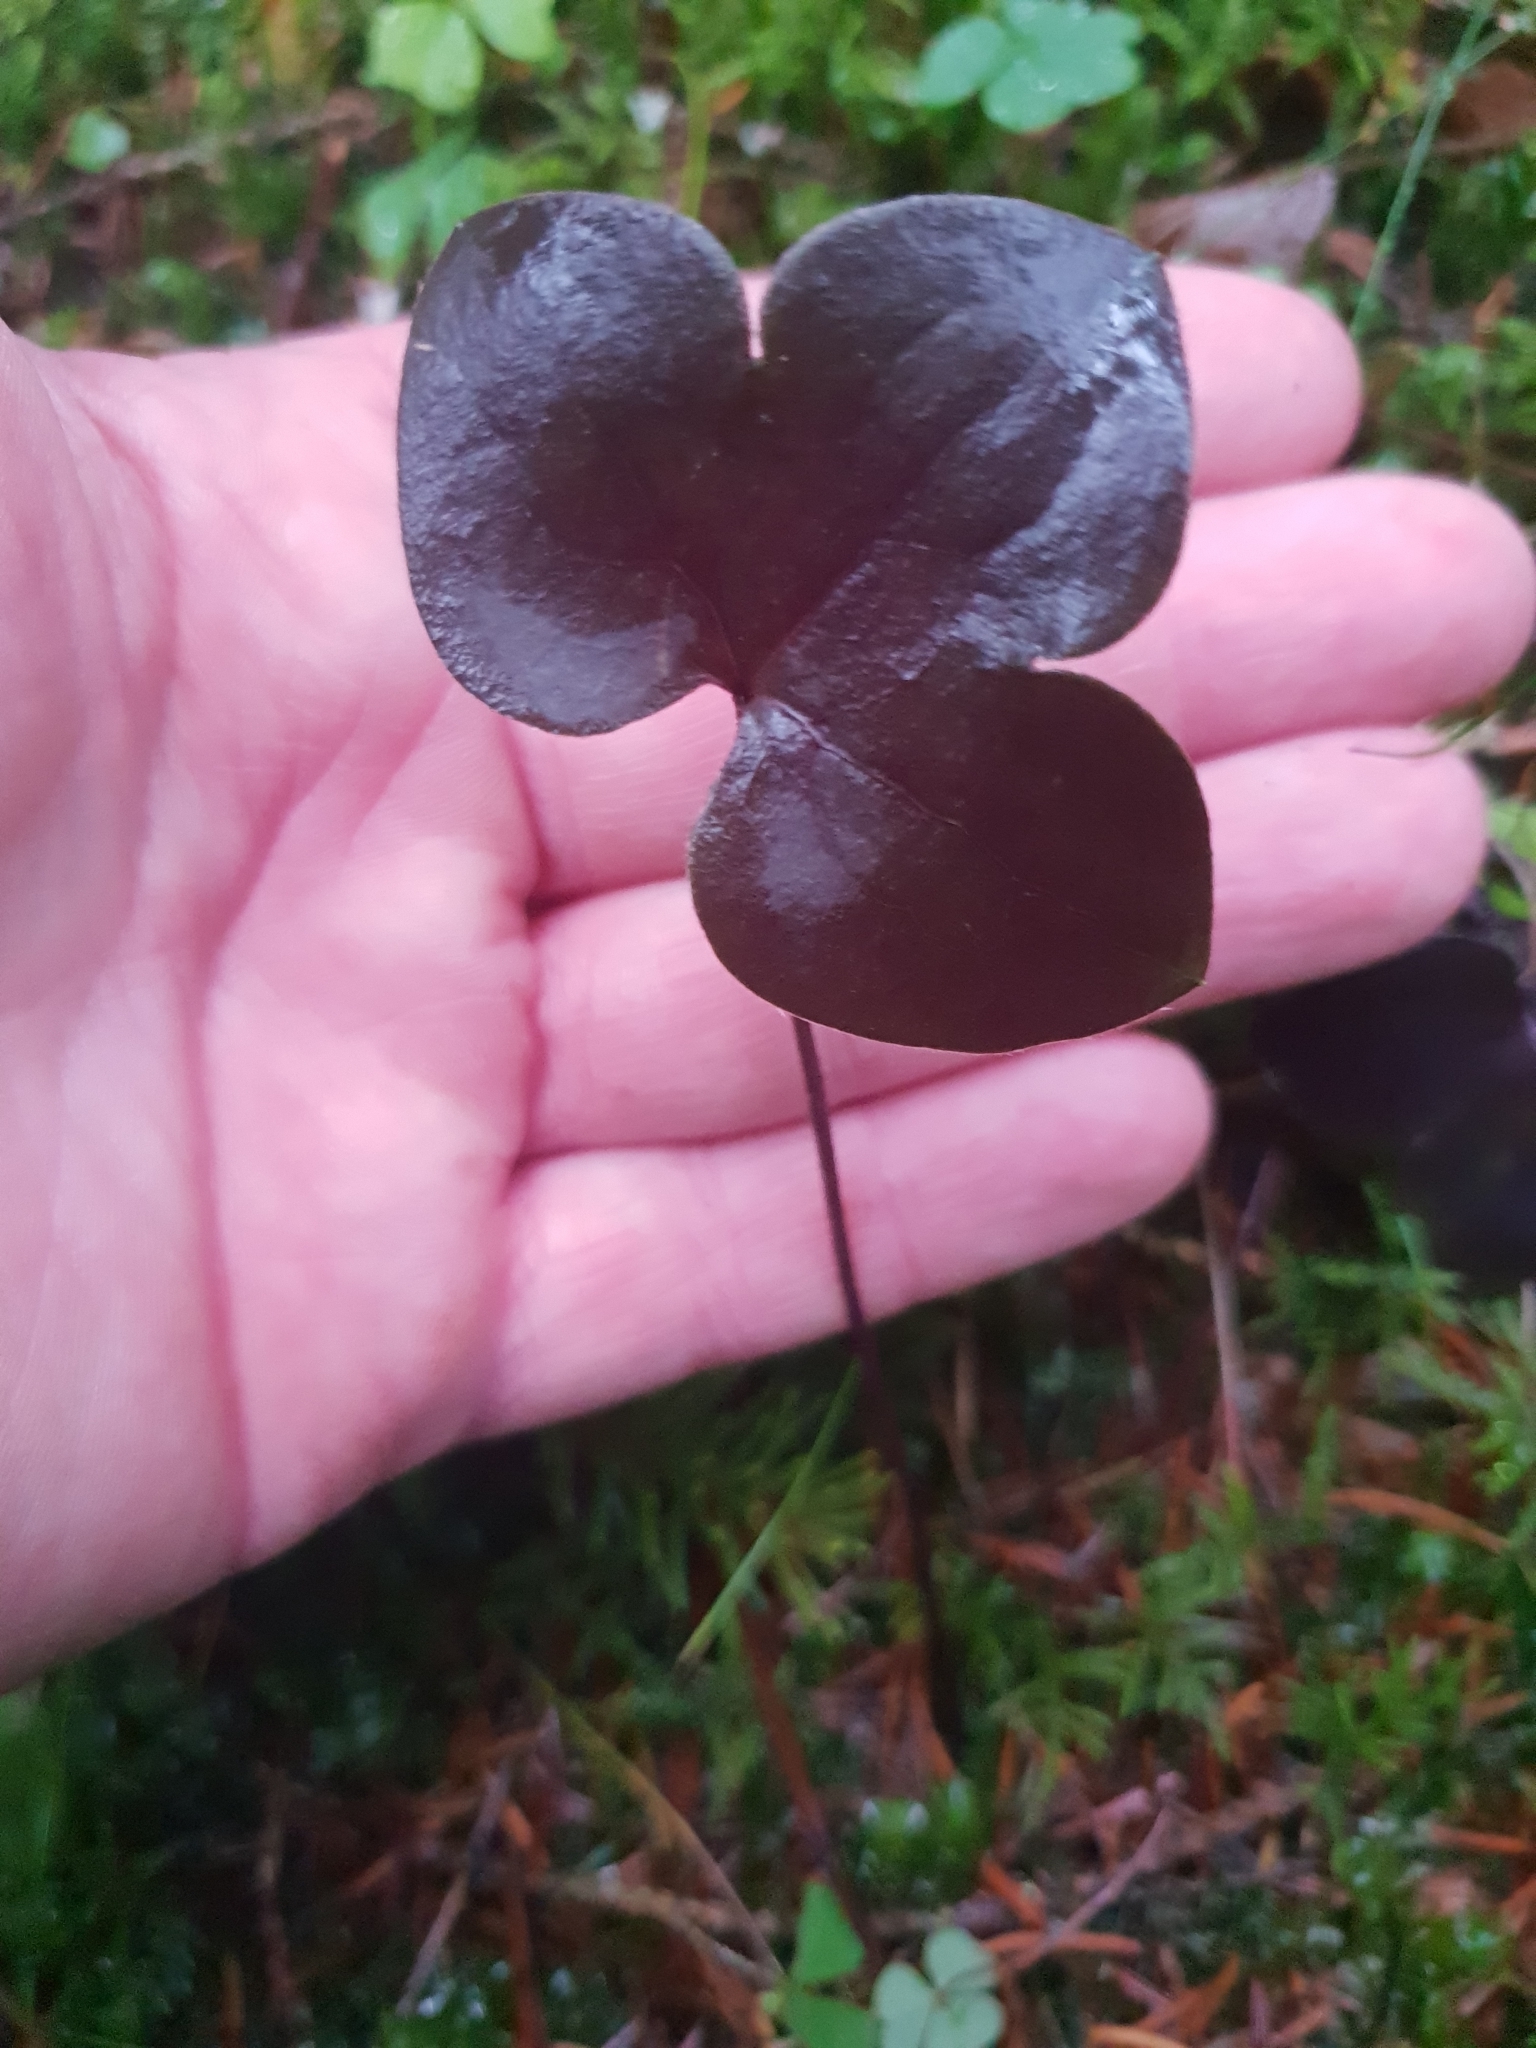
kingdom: Plantae
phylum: Tracheophyta
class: Magnoliopsida
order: Ranunculales
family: Ranunculaceae
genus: Hepatica
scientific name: Hepatica nobilis
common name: Liverleaf
